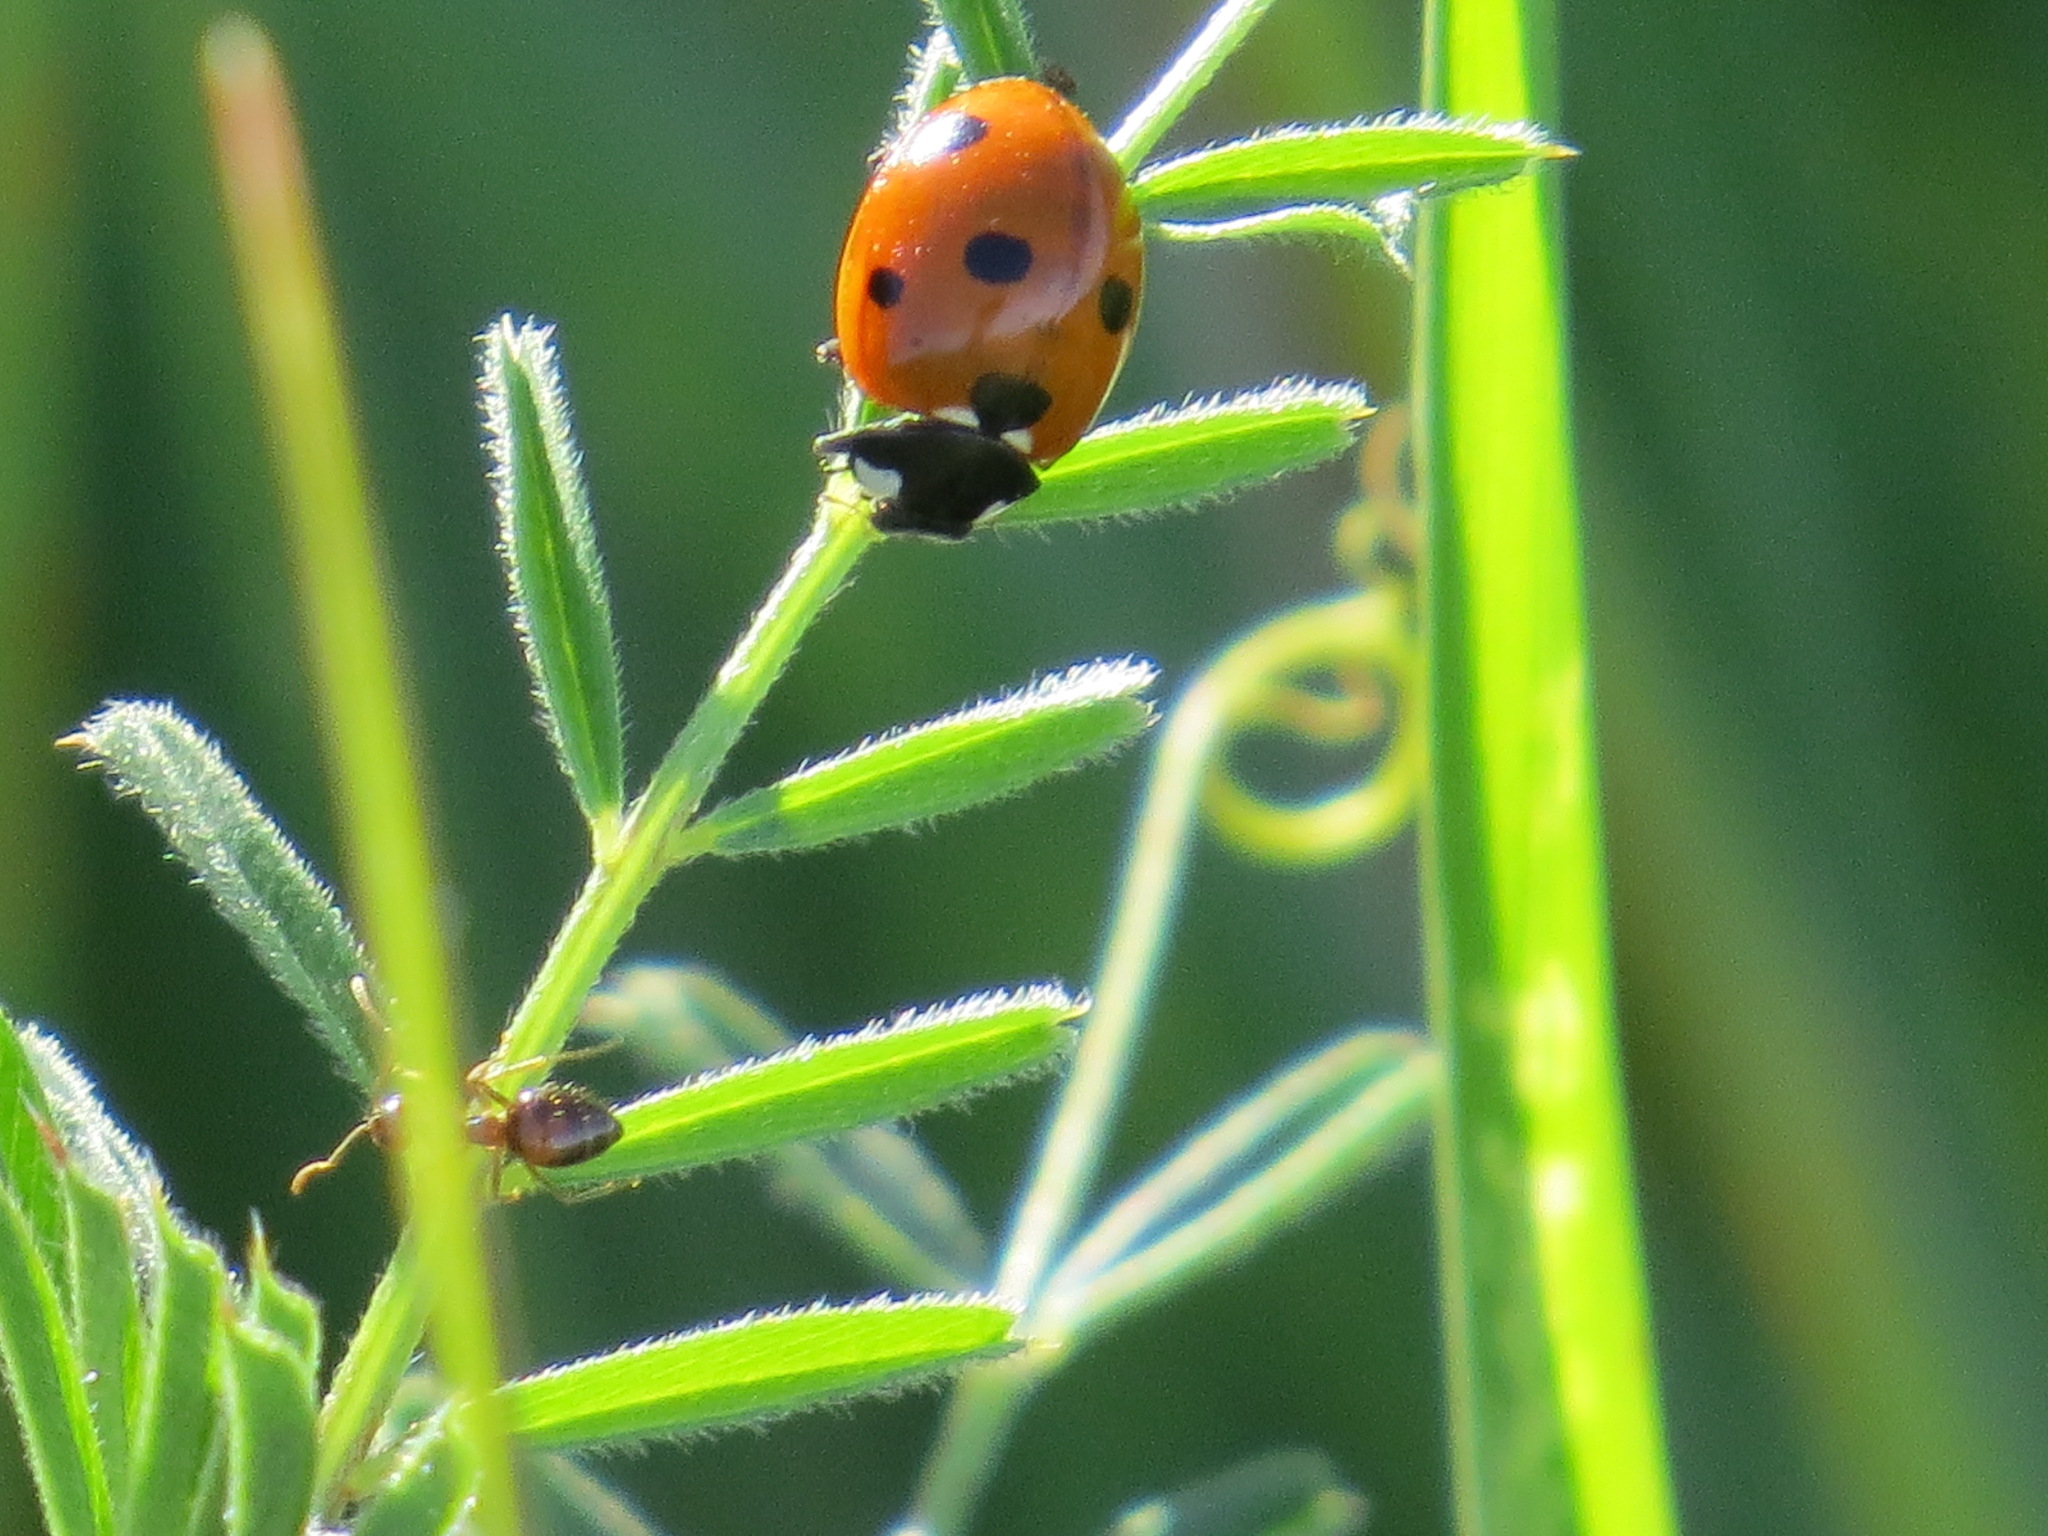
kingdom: Animalia
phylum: Arthropoda
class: Insecta
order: Coleoptera
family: Coccinellidae
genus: Coccinella
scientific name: Coccinella septempunctata
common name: Sevenspotted lady beetle
